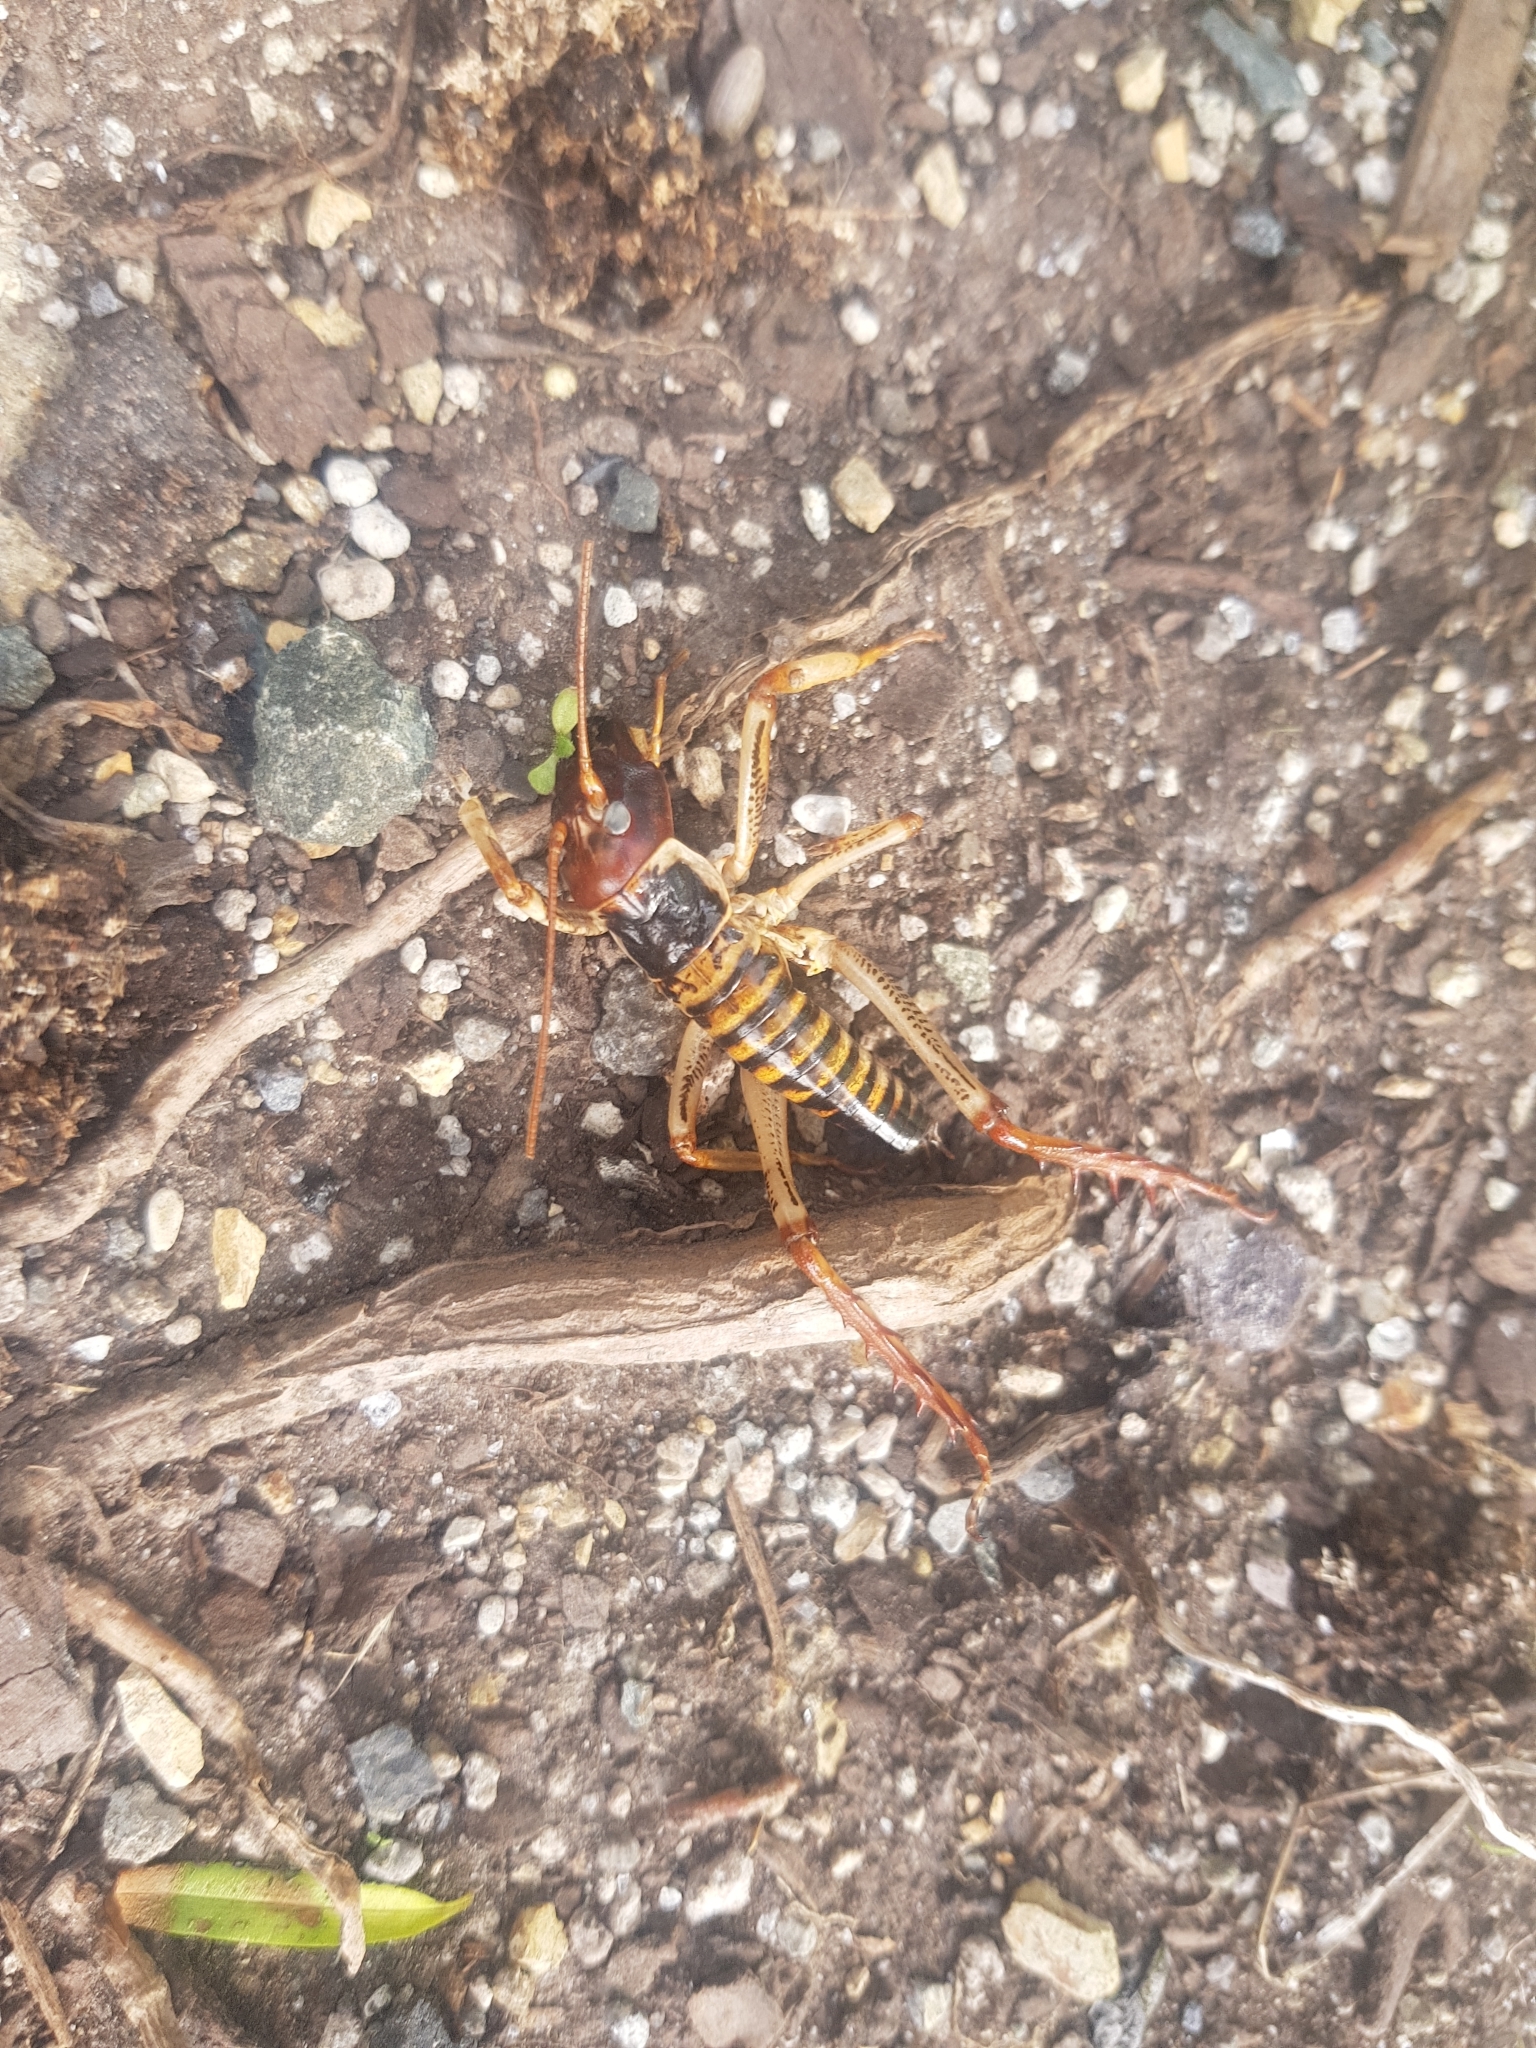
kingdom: Animalia
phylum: Arthropoda
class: Insecta
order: Orthoptera
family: Anostostomatidae
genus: Hemideina
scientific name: Hemideina crassidens
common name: Wellington tree weta
